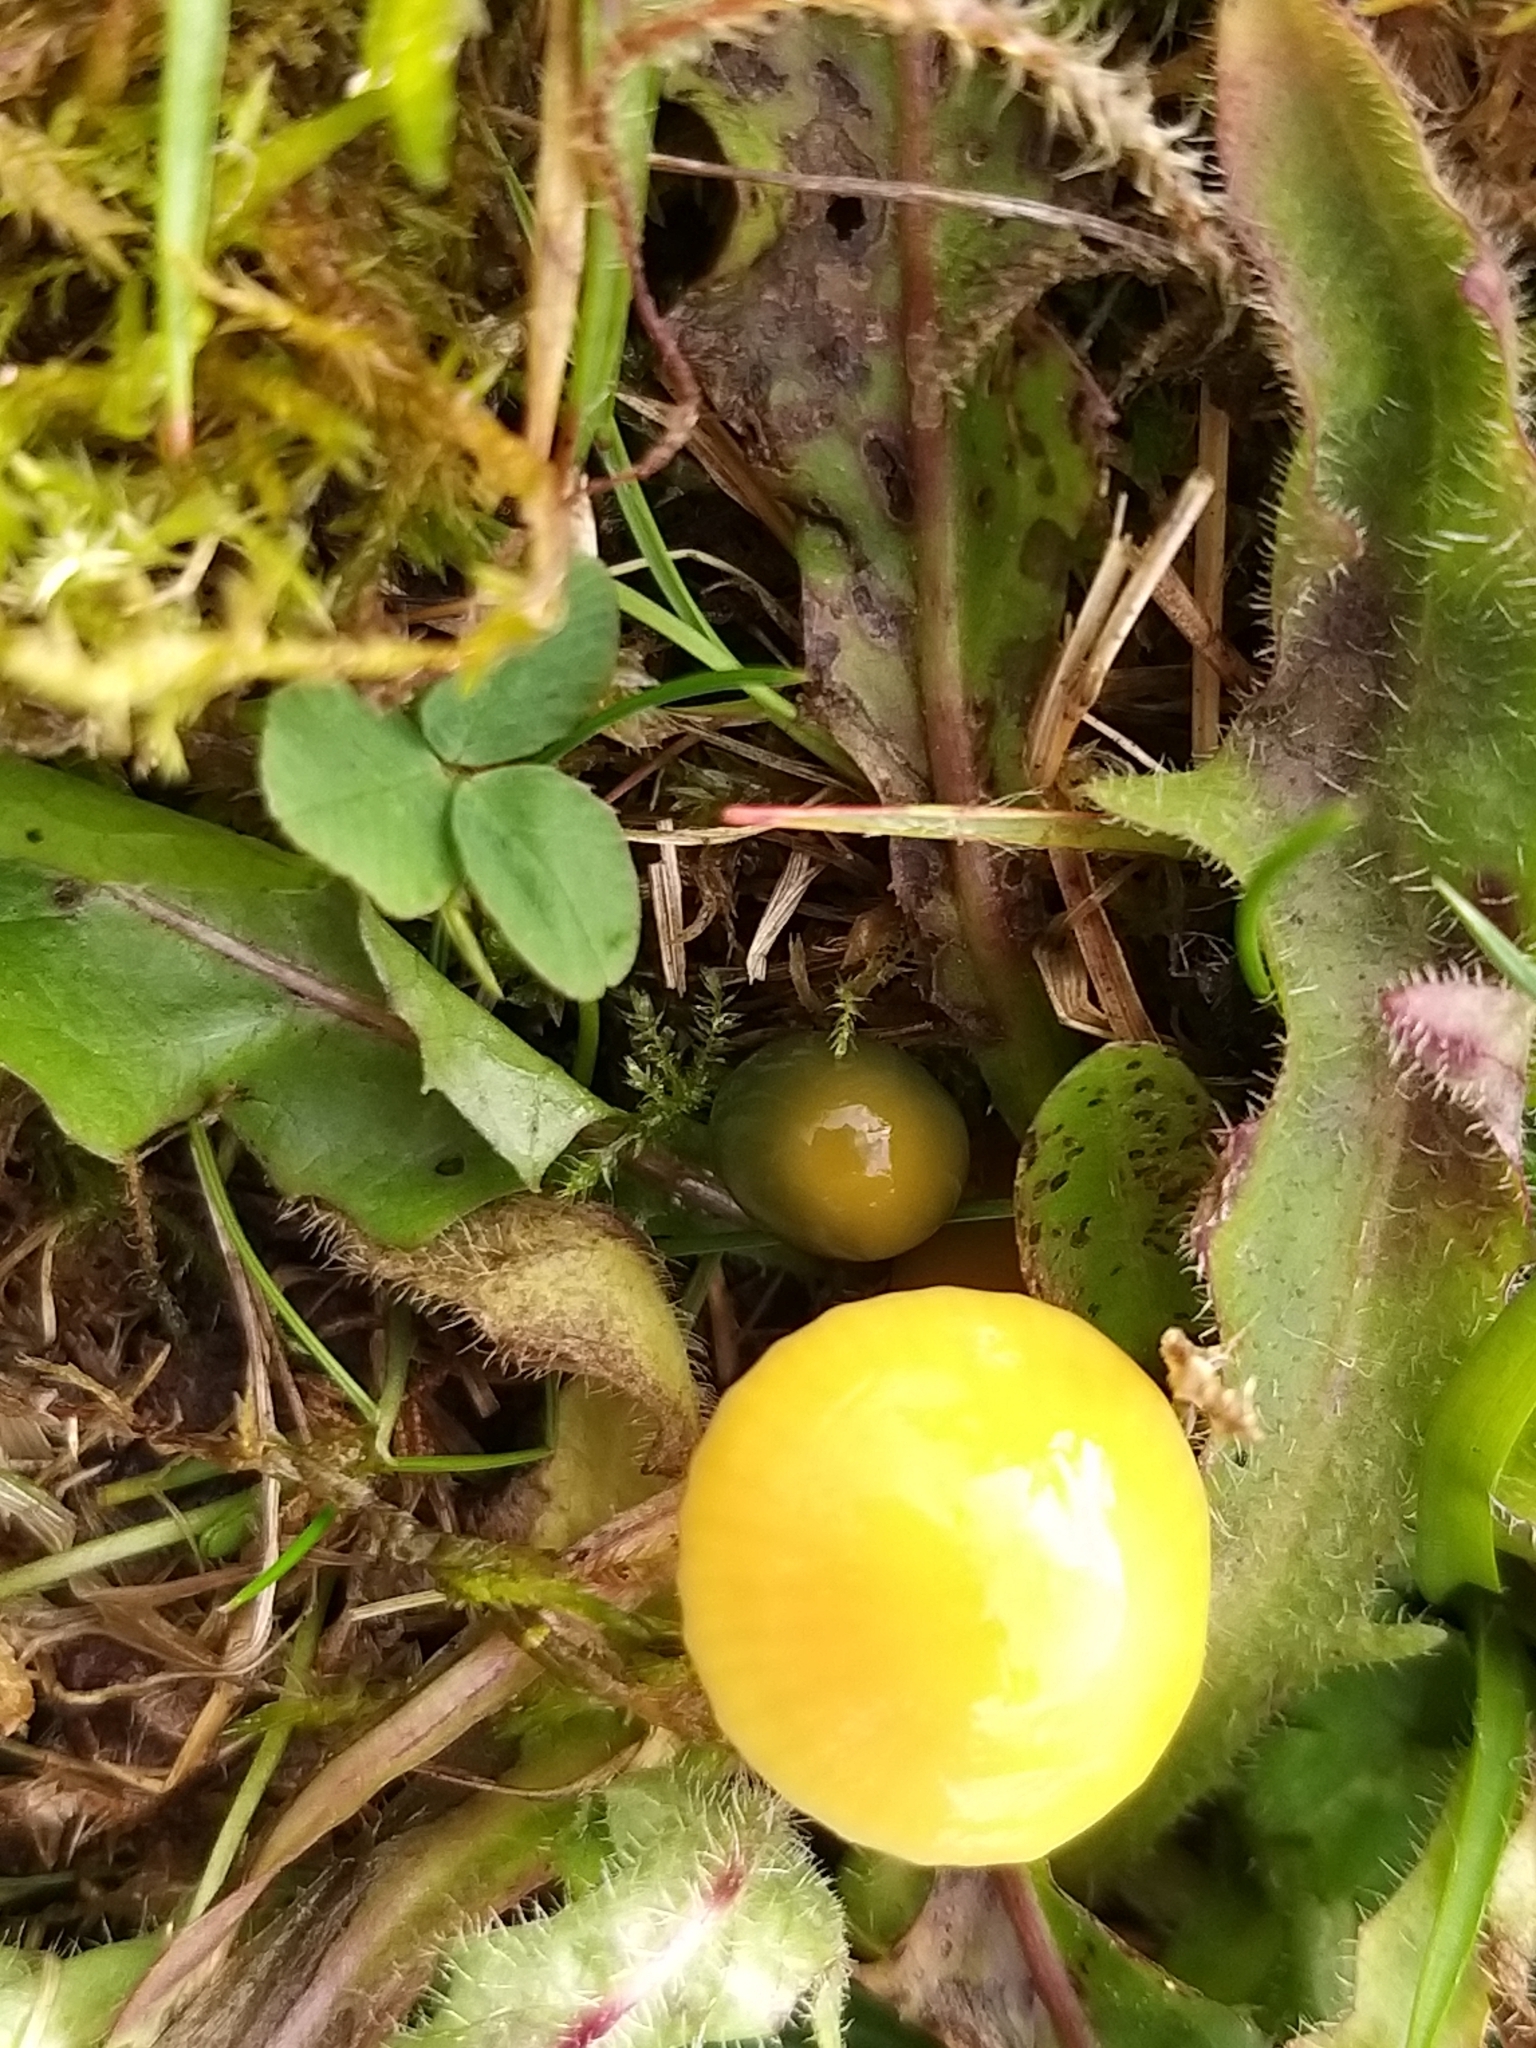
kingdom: Fungi
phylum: Basidiomycota
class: Agaricomycetes
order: Agaricales
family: Hygrophoraceae
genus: Gliophorus
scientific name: Gliophorus psittacinus
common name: Parrot wax-cap
